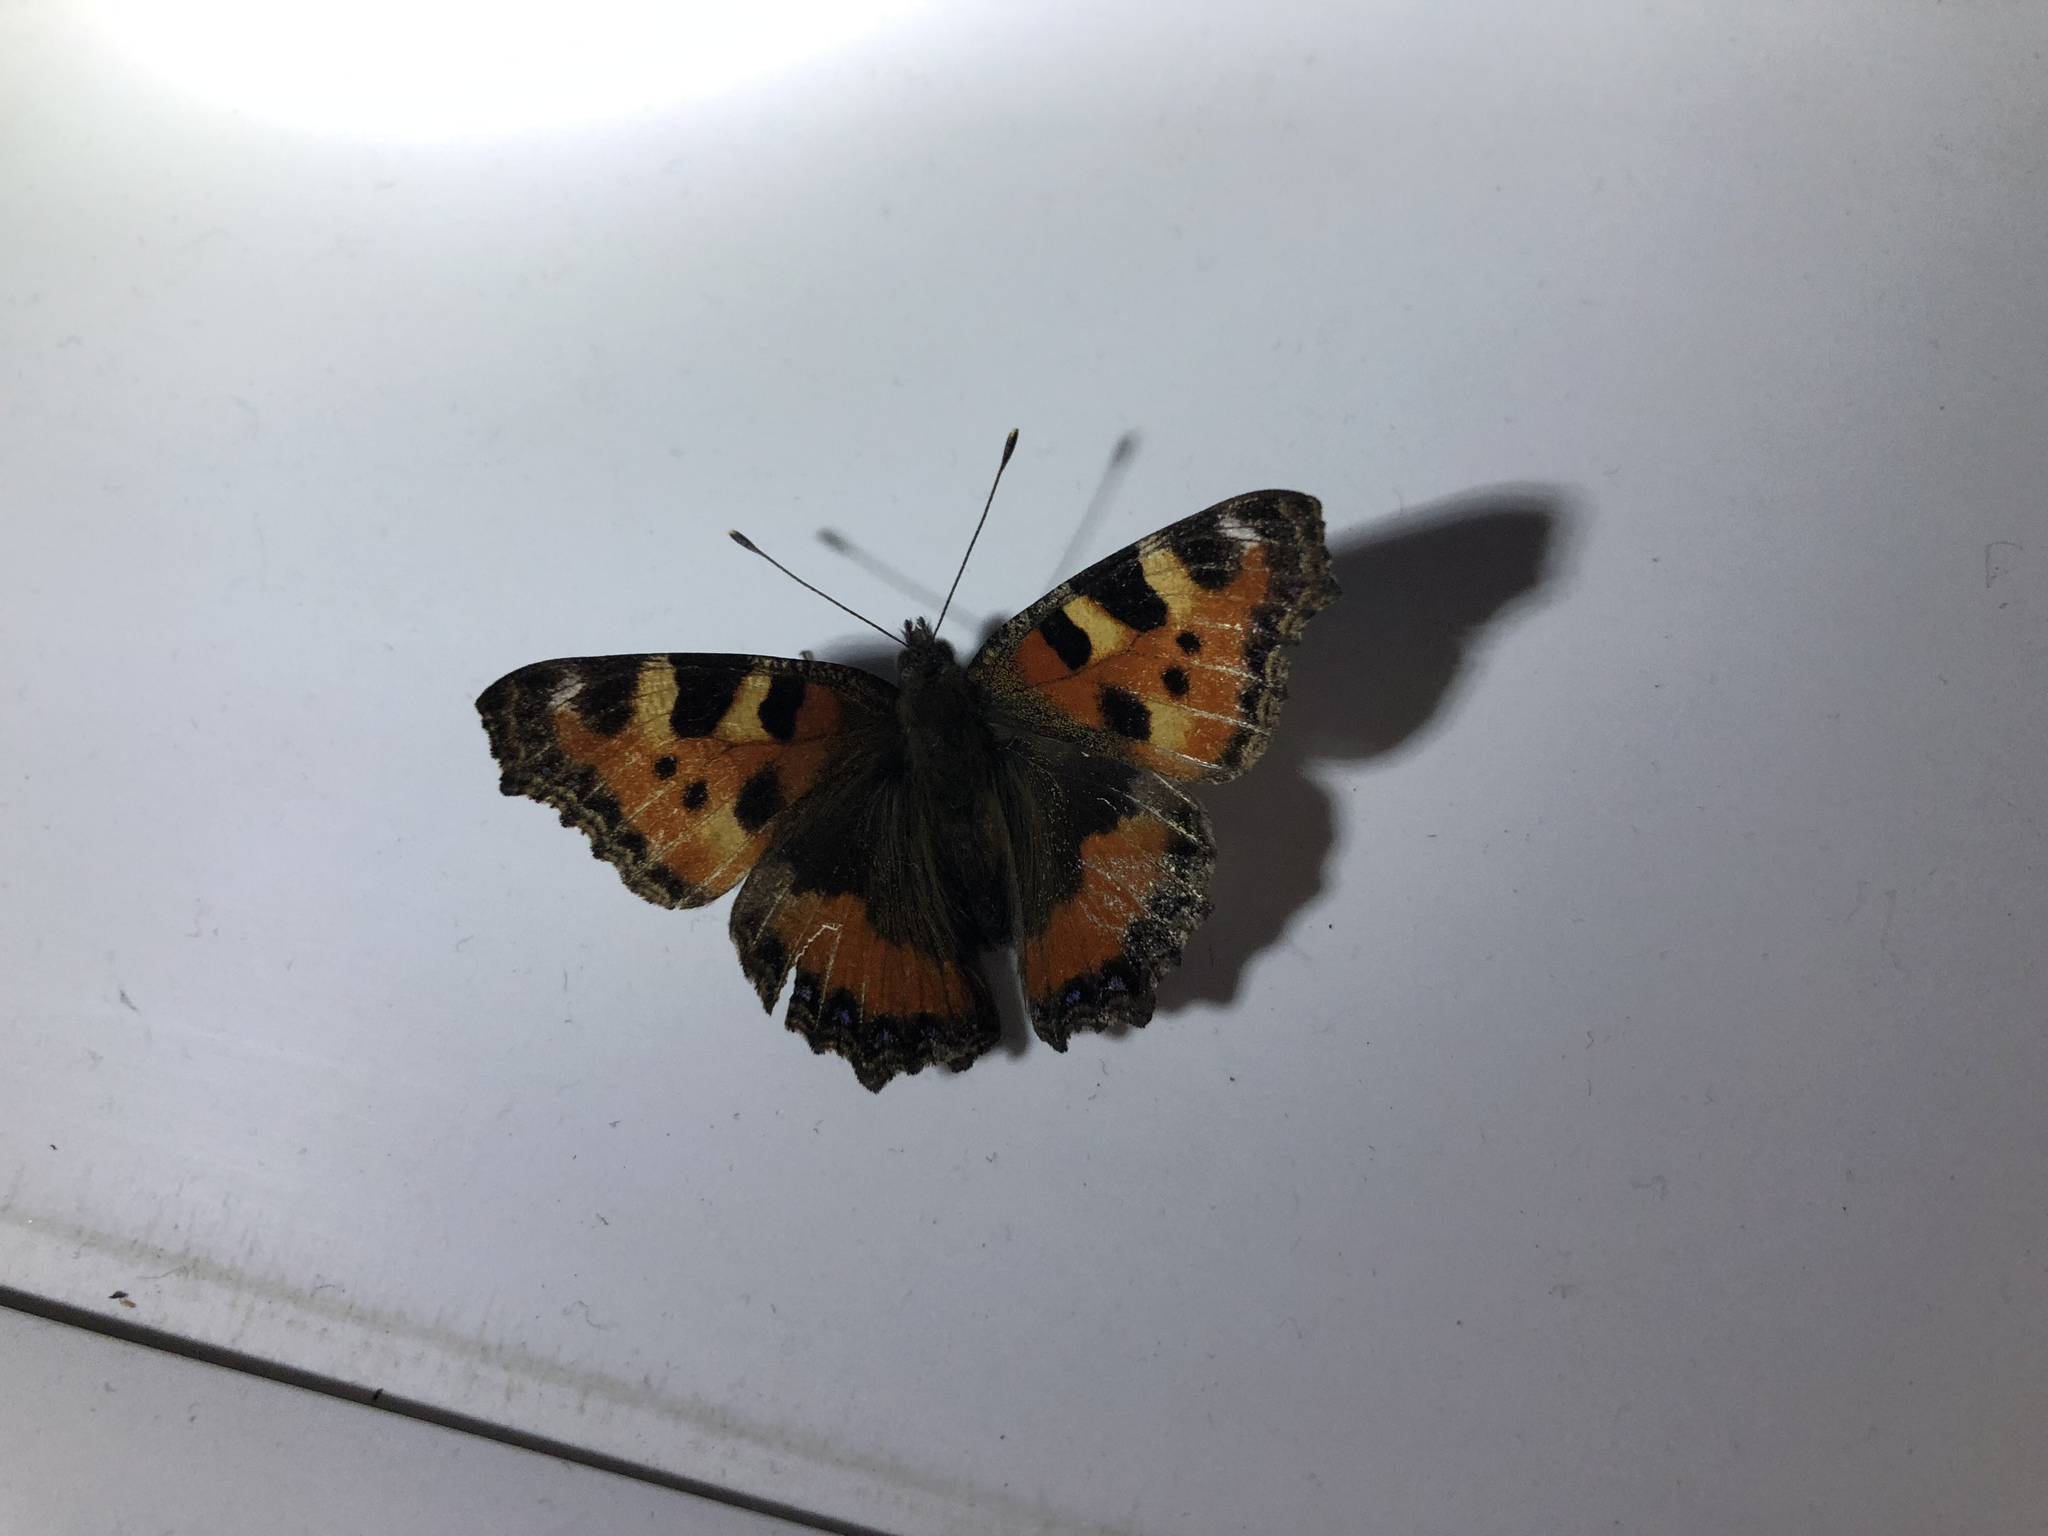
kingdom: Animalia
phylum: Arthropoda
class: Insecta
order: Lepidoptera
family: Nymphalidae
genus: Aglais
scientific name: Aglais urticae
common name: Small tortoiseshell
